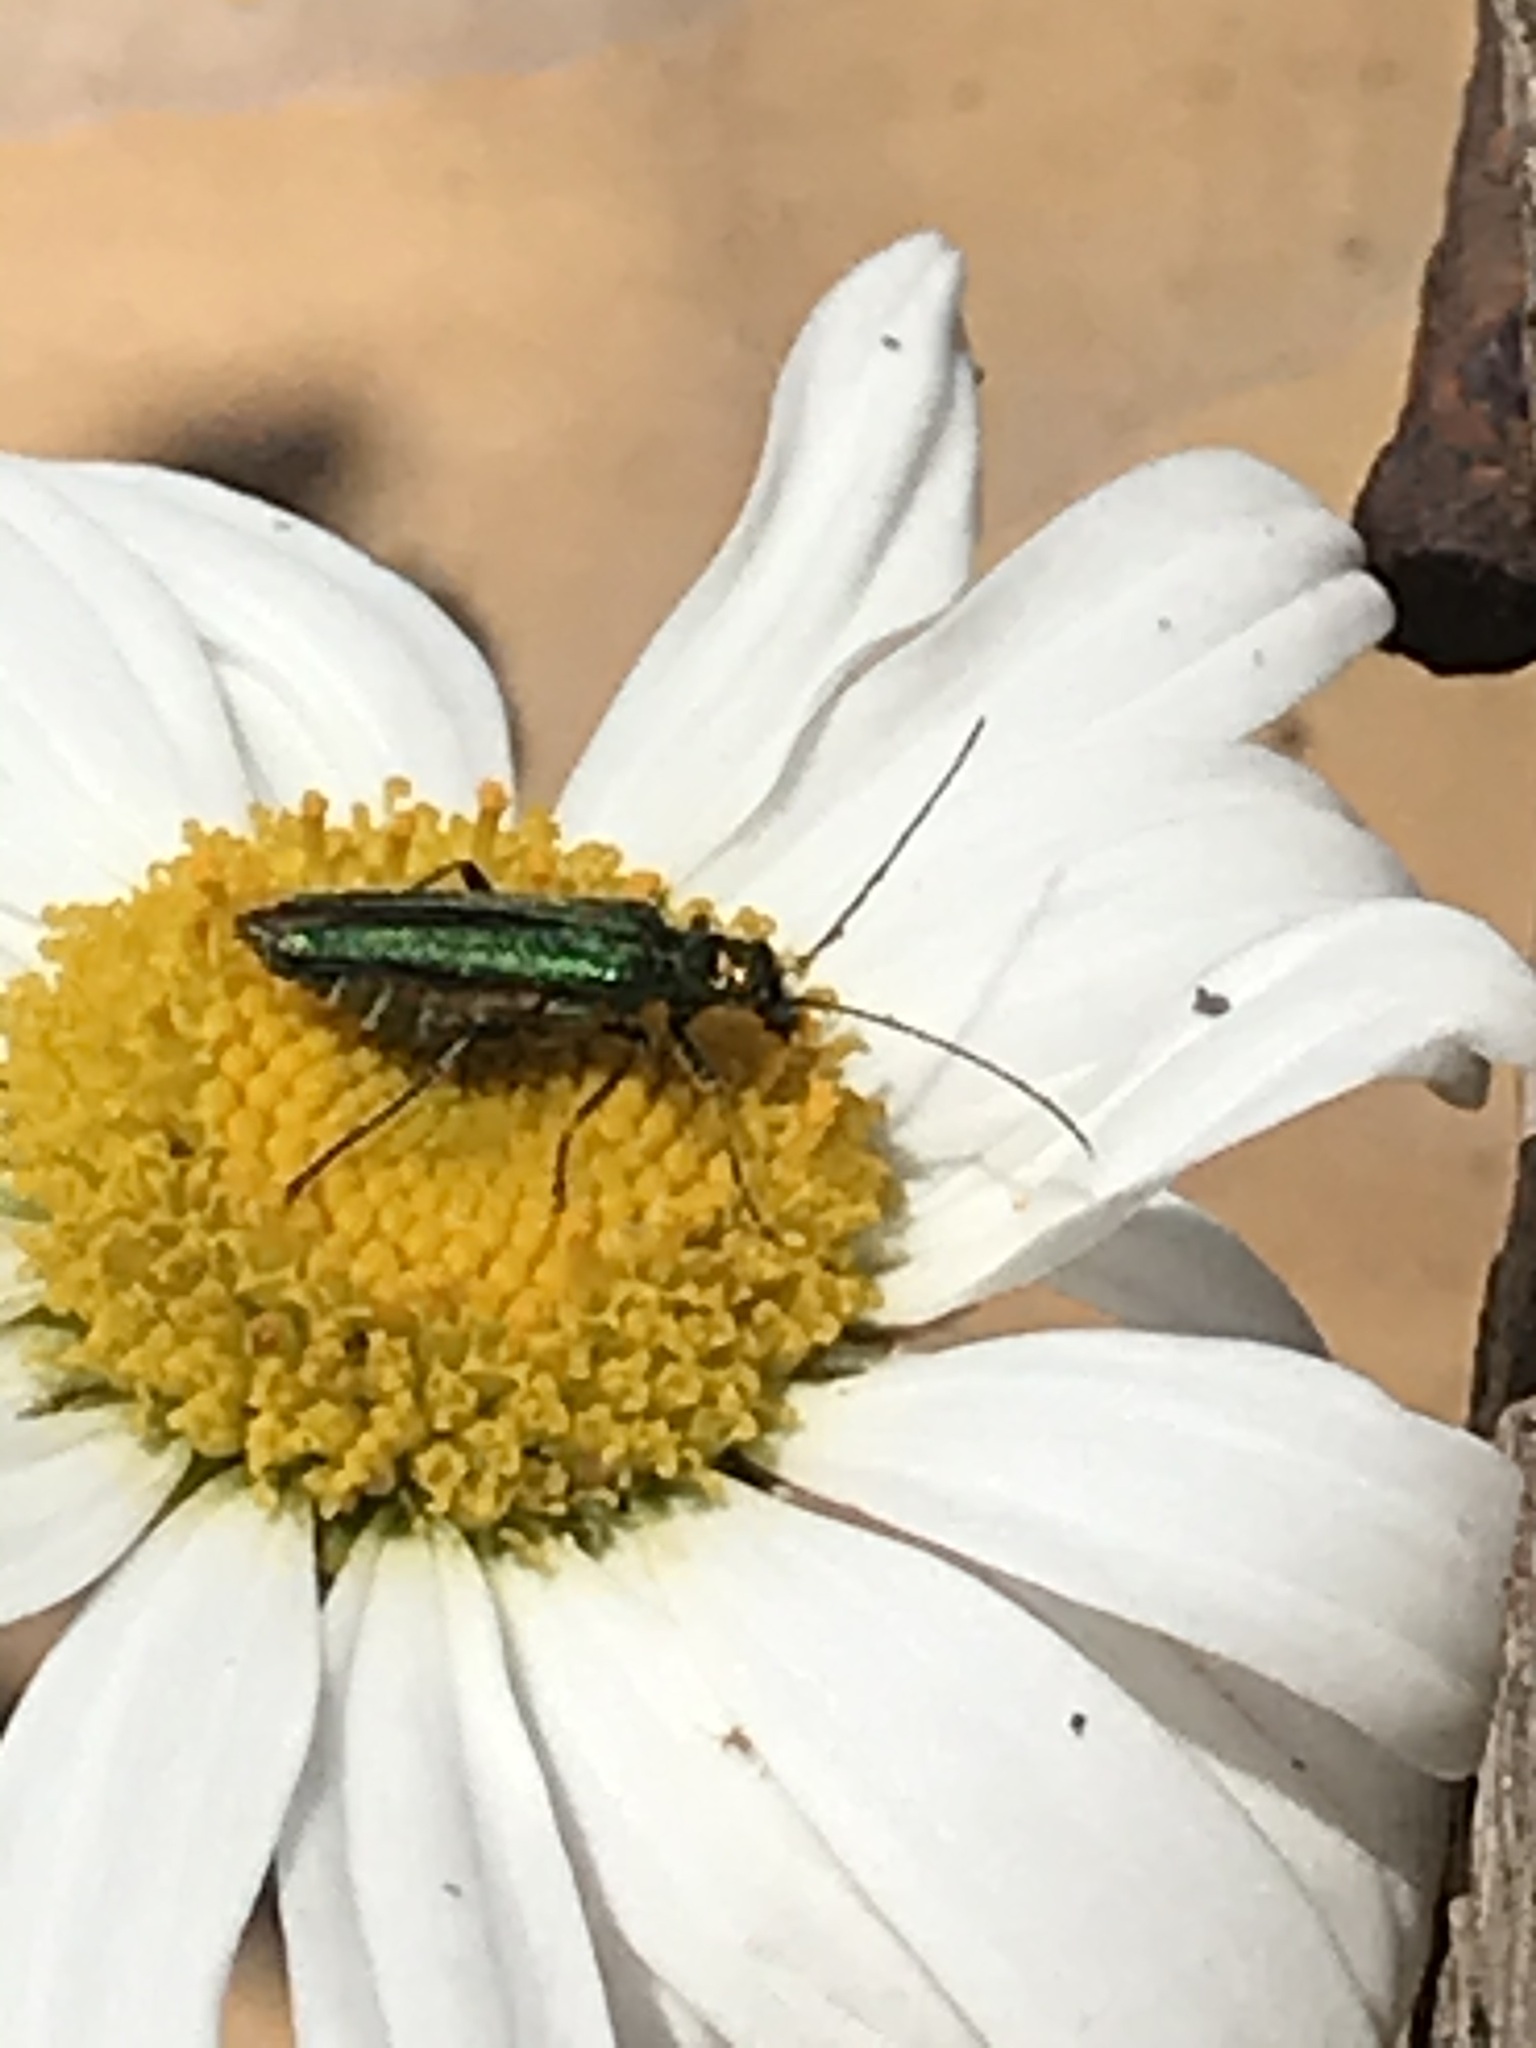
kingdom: Animalia
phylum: Arthropoda
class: Insecta
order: Coleoptera
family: Oedemeridae
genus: Oedemera
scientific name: Oedemera nobilis
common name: Swollen-thighed beetle
